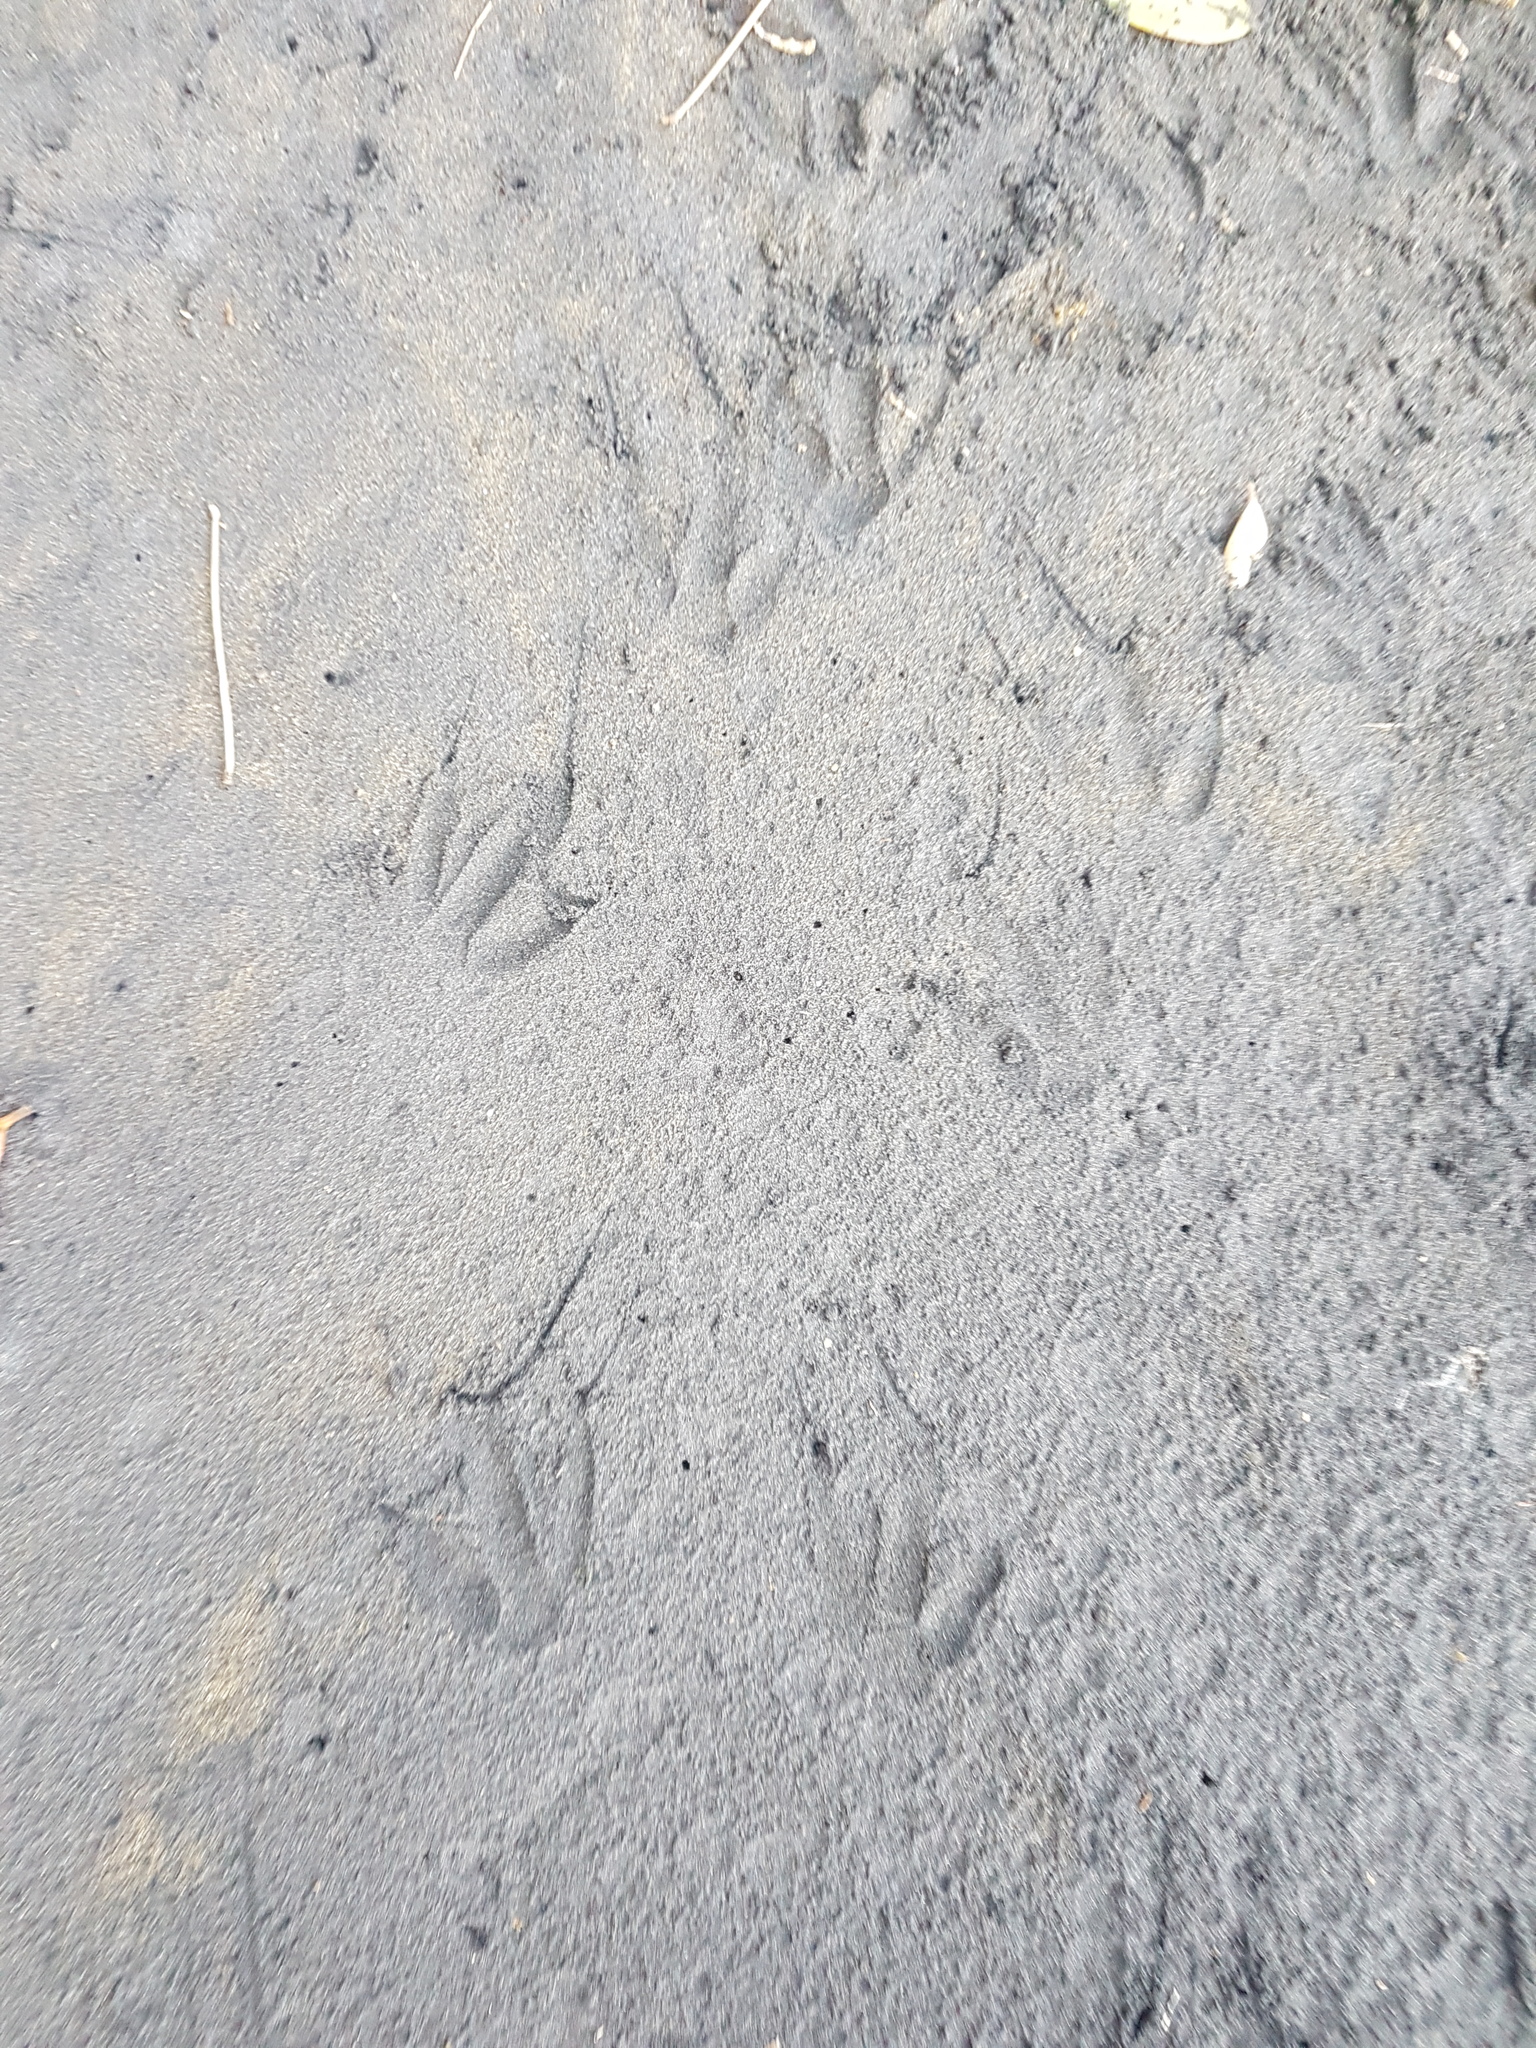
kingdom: Animalia
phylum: Chordata
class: Aves
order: Sphenisciformes
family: Spheniscidae
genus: Eudyptula
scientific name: Eudyptula minor
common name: Little penguin
